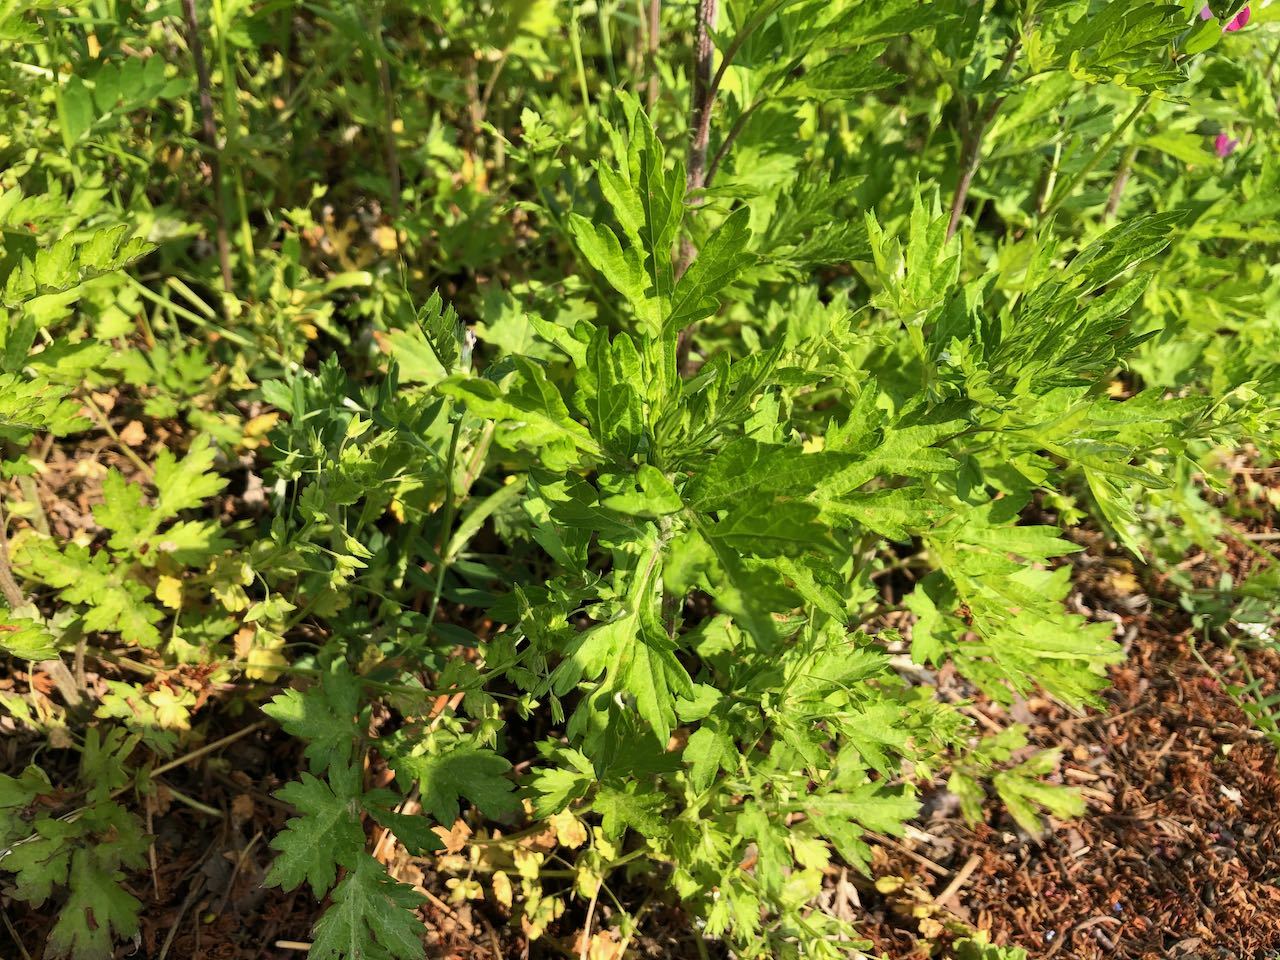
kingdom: Plantae
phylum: Tracheophyta
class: Magnoliopsida
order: Asterales
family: Asteraceae
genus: Artemisia
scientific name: Artemisia princeps
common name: Japanese mugwort
